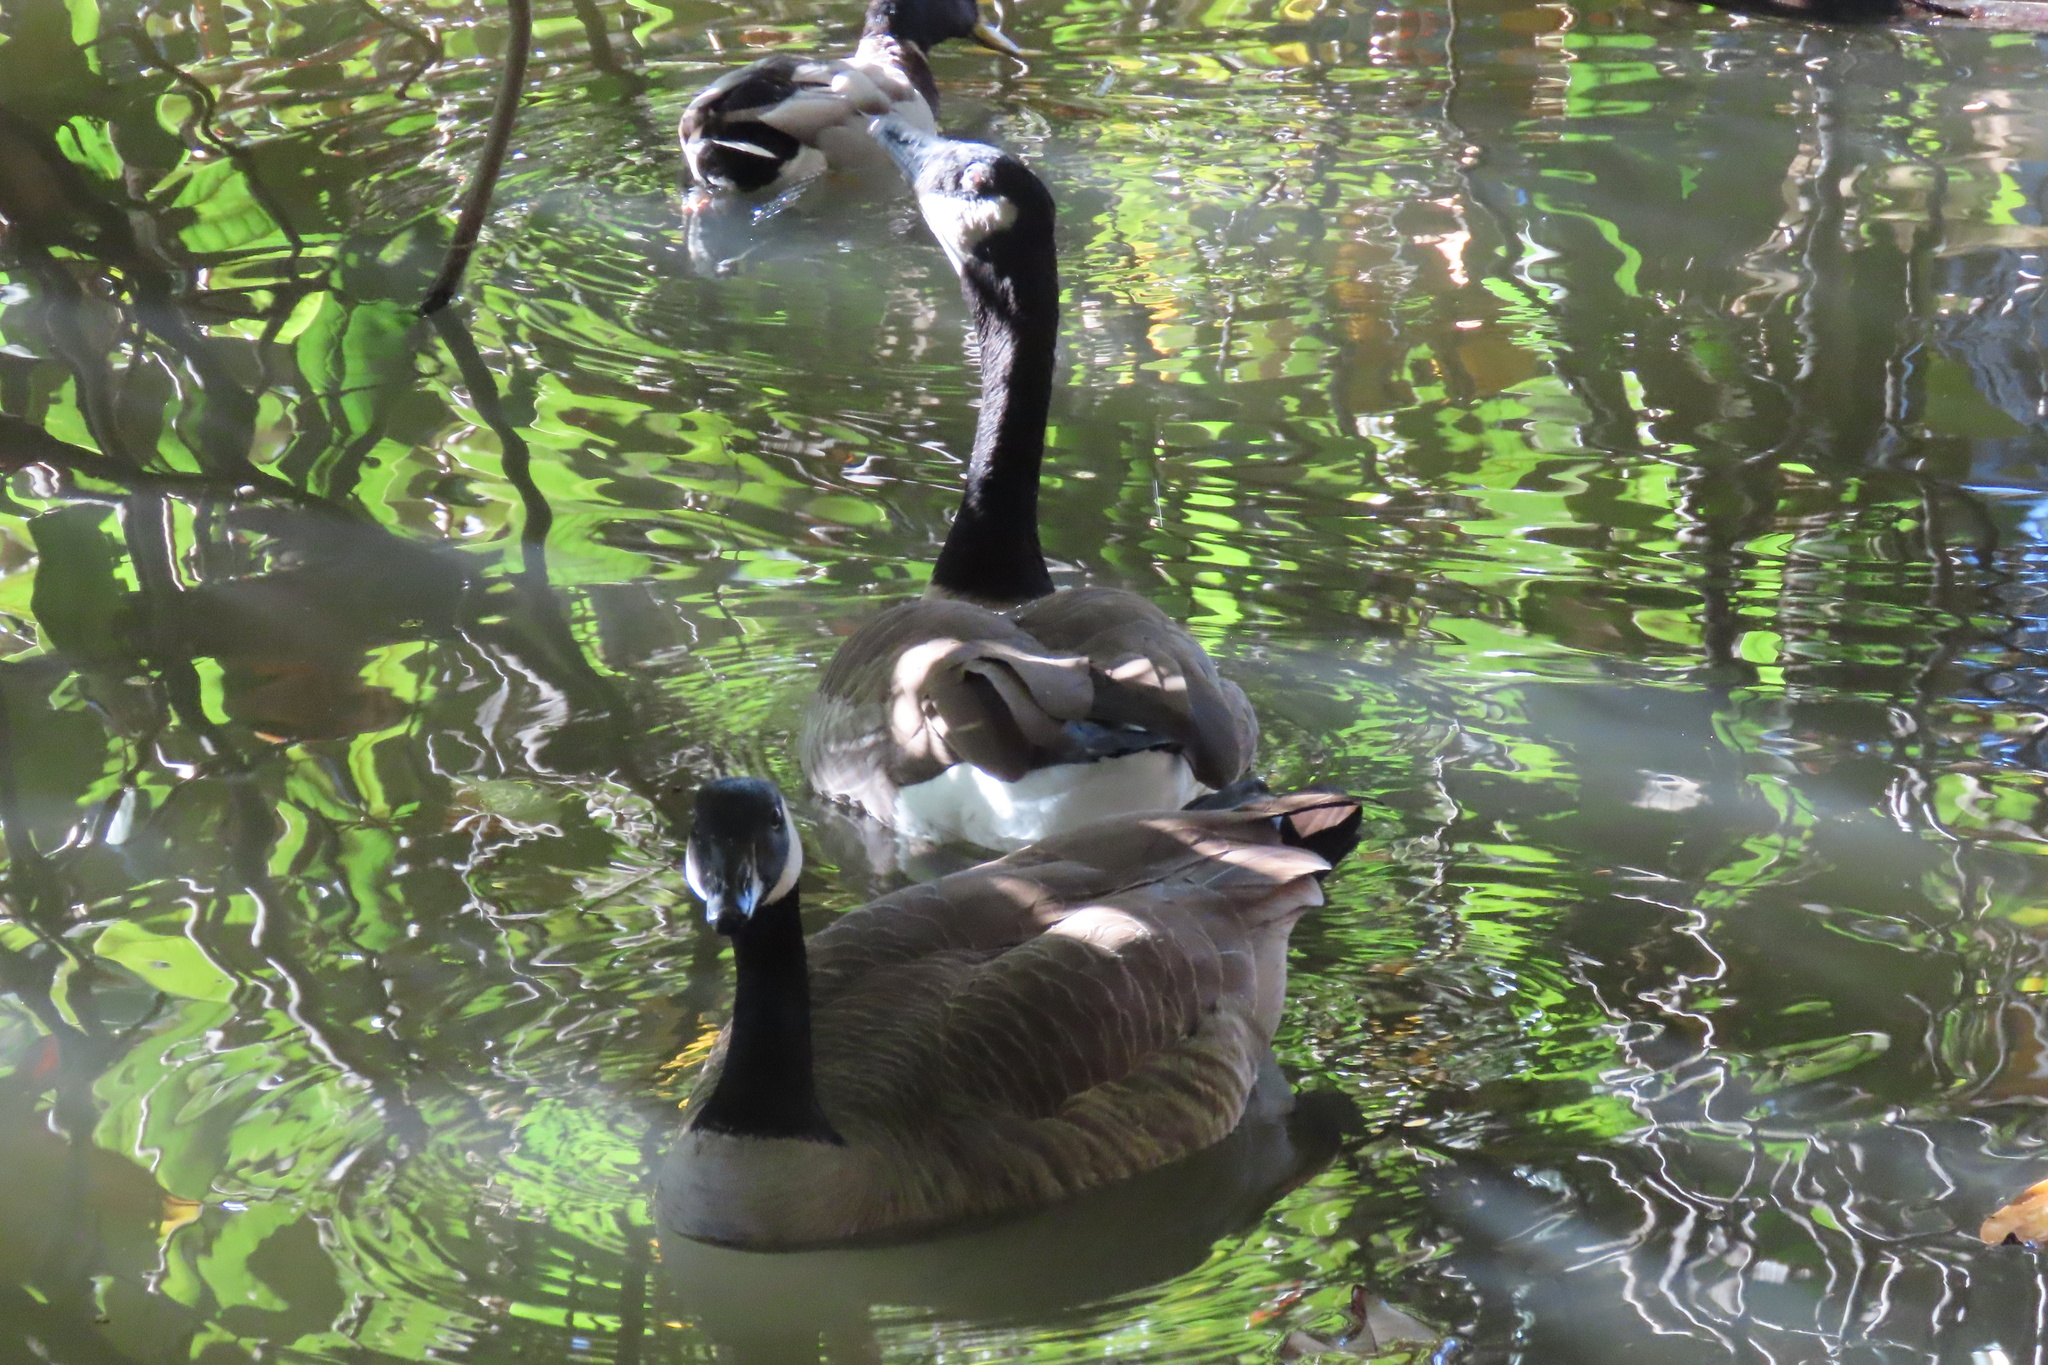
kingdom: Animalia
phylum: Chordata
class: Aves
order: Anseriformes
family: Anatidae
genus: Branta
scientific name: Branta canadensis
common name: Canada goose
